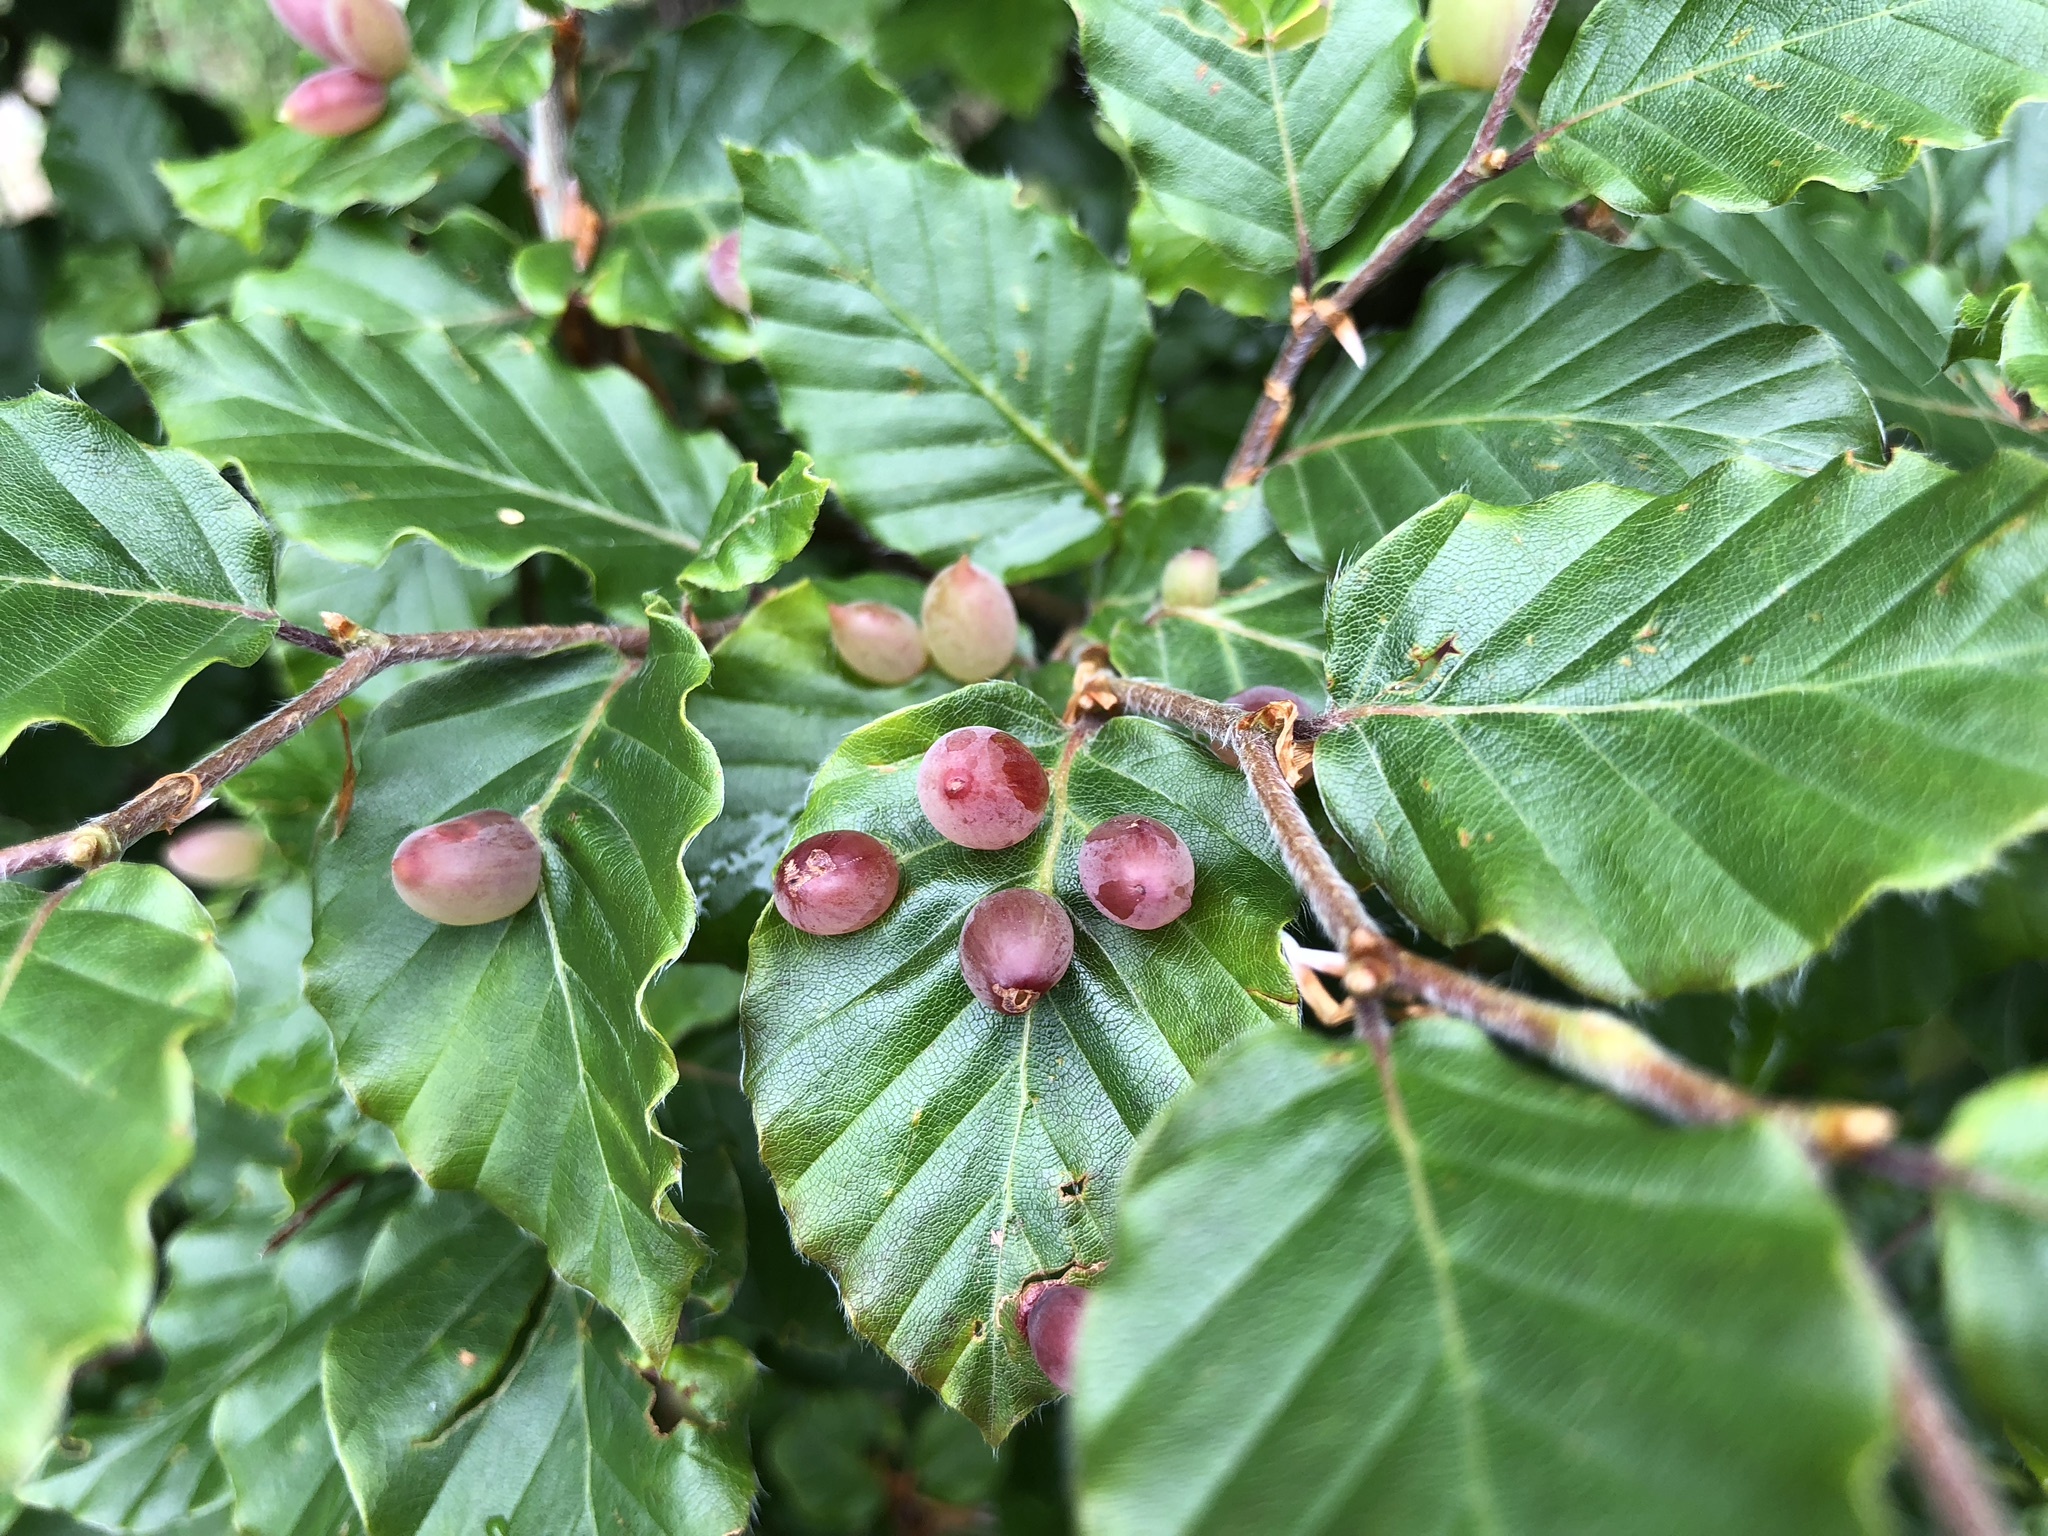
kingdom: Animalia
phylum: Arthropoda
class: Insecta
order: Diptera
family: Cecidomyiidae
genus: Mikiola
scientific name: Mikiola fagi
